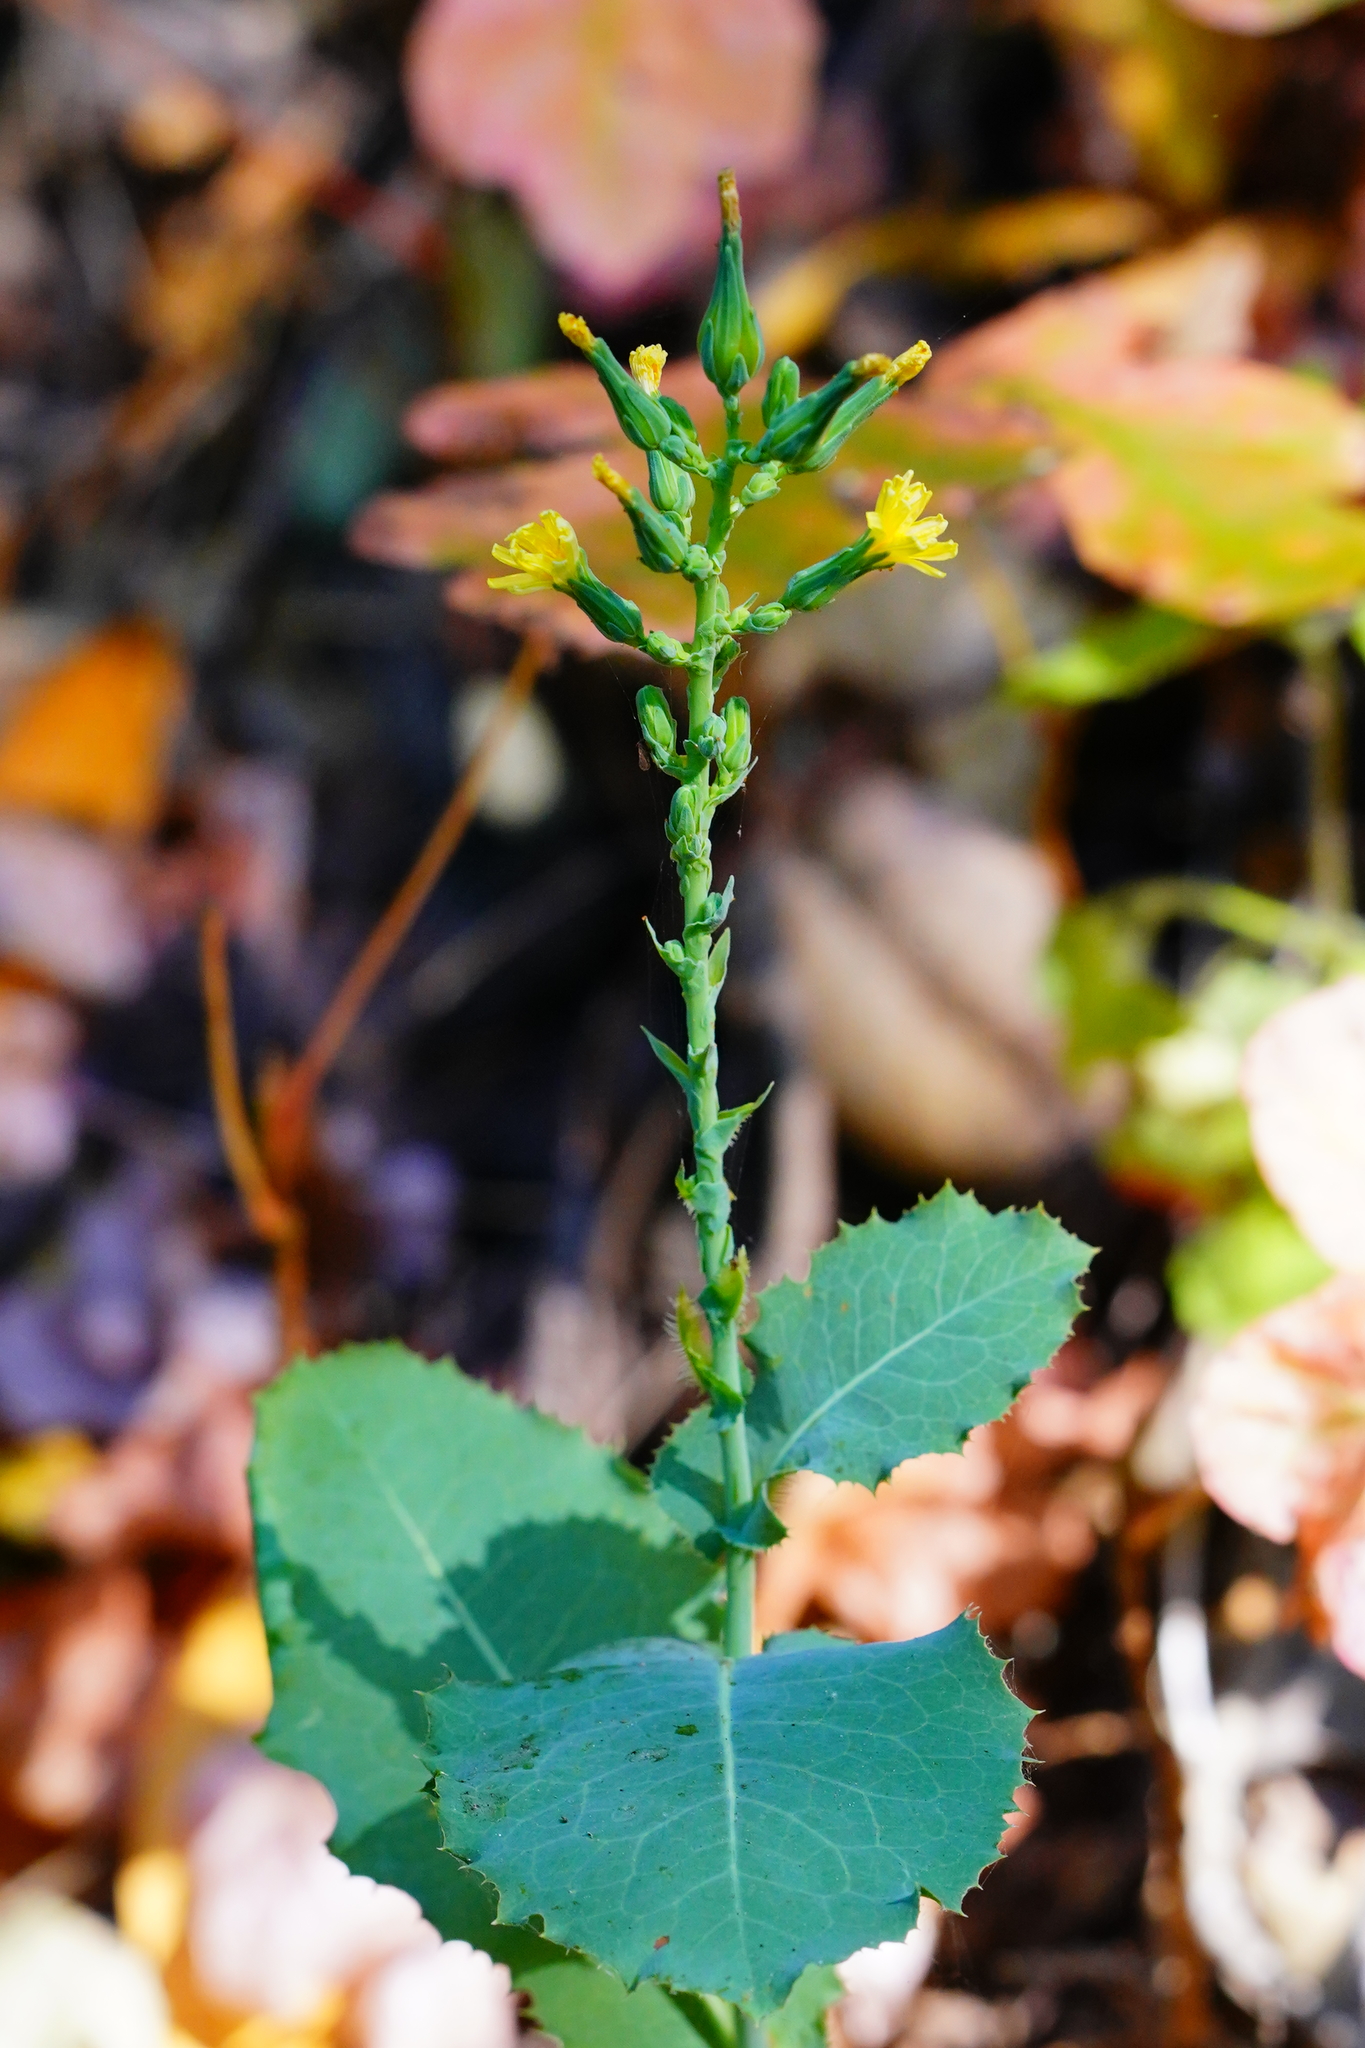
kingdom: Plantae
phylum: Tracheophyta
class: Magnoliopsida
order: Asterales
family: Asteraceae
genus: Lactuca
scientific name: Lactuca virosa
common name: Great lettuce
